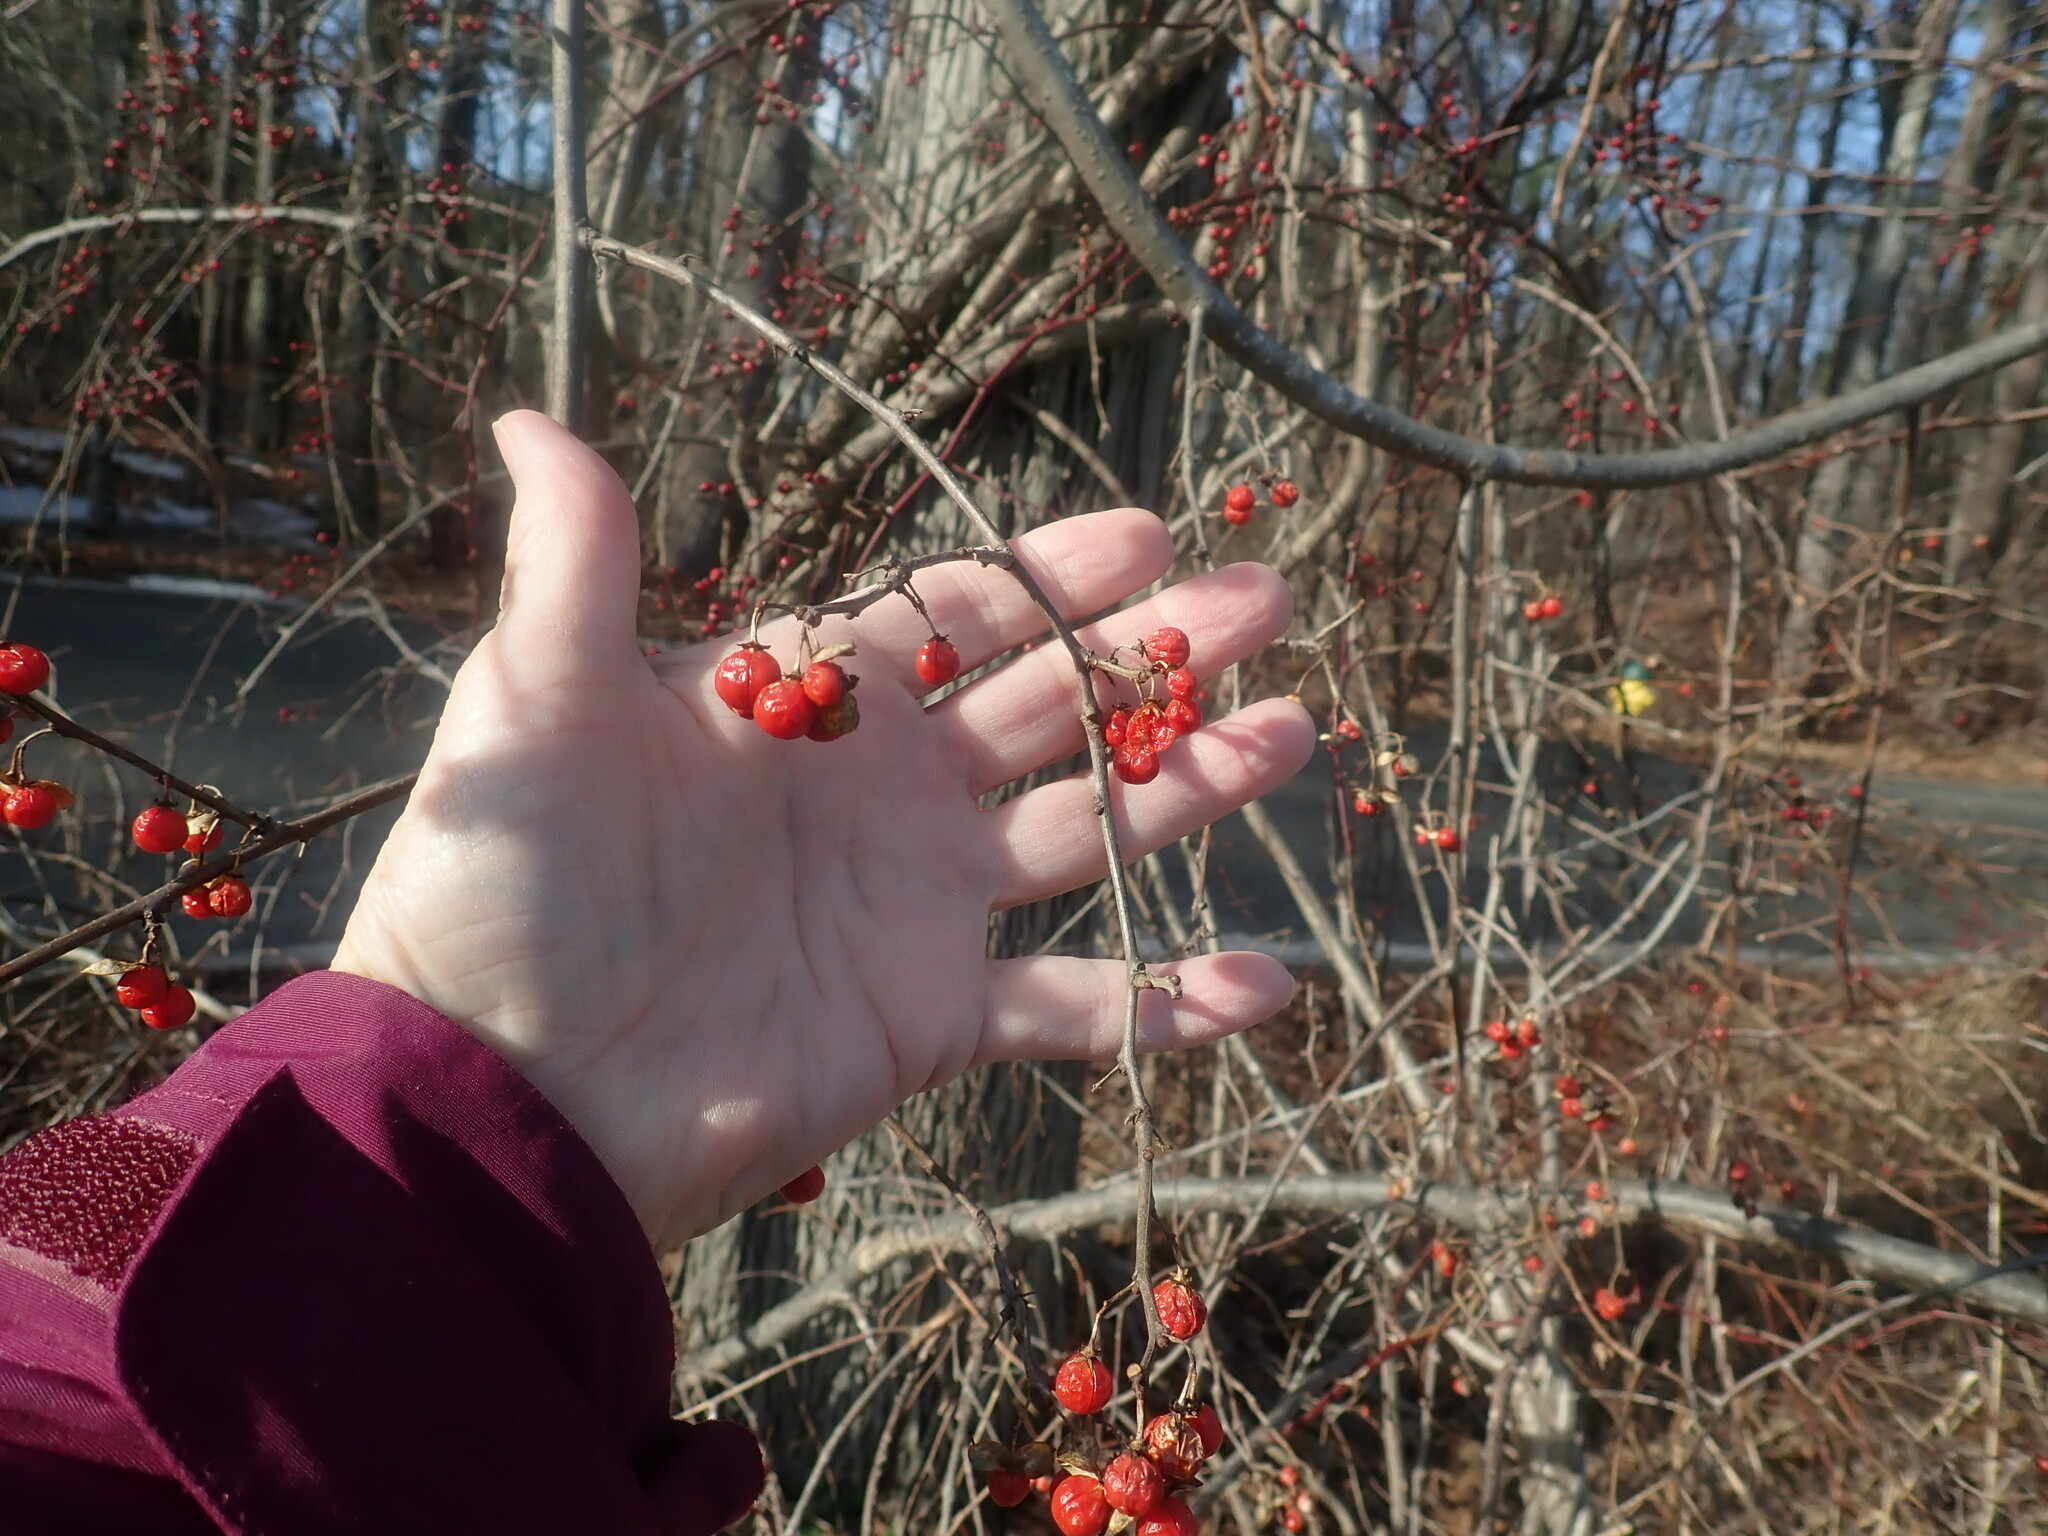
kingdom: Plantae
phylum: Tracheophyta
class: Magnoliopsida
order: Celastrales
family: Celastraceae
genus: Celastrus
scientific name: Celastrus orbiculatus
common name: Oriental bittersweet
